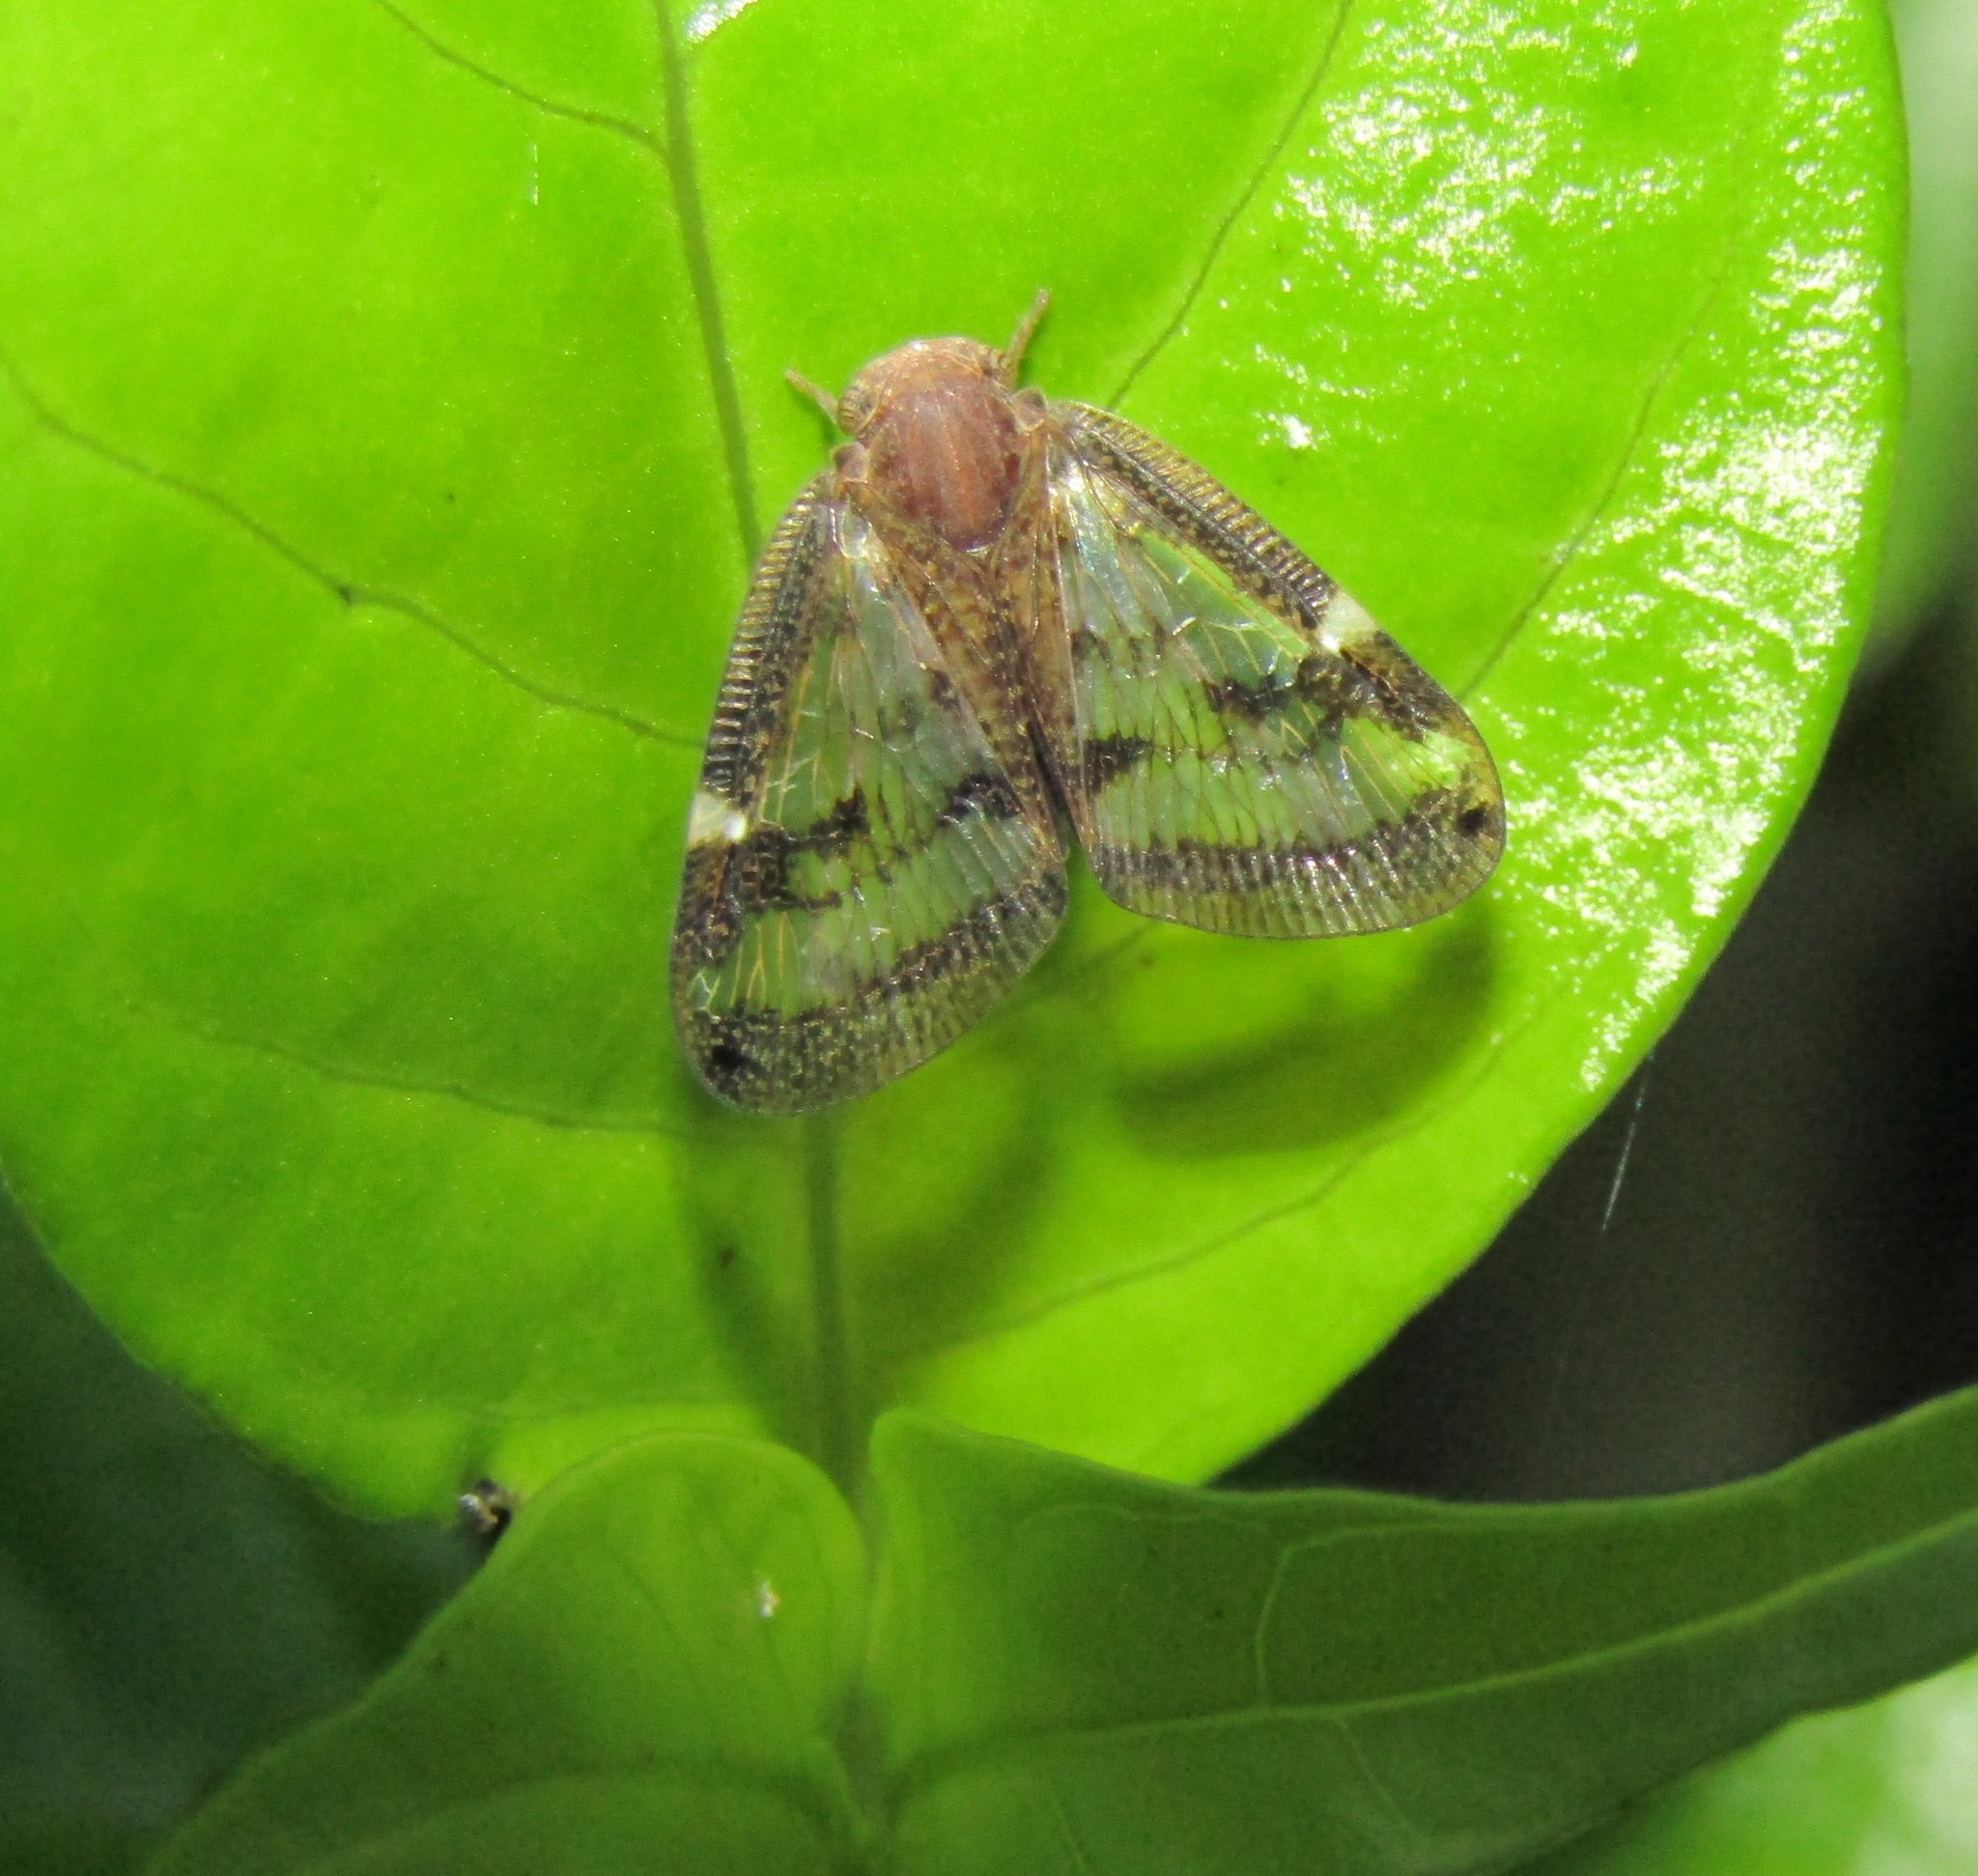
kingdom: Animalia
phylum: Arthropoda
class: Insecta
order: Hemiptera
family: Ricaniidae
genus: Scolypopa
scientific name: Scolypopa australis
